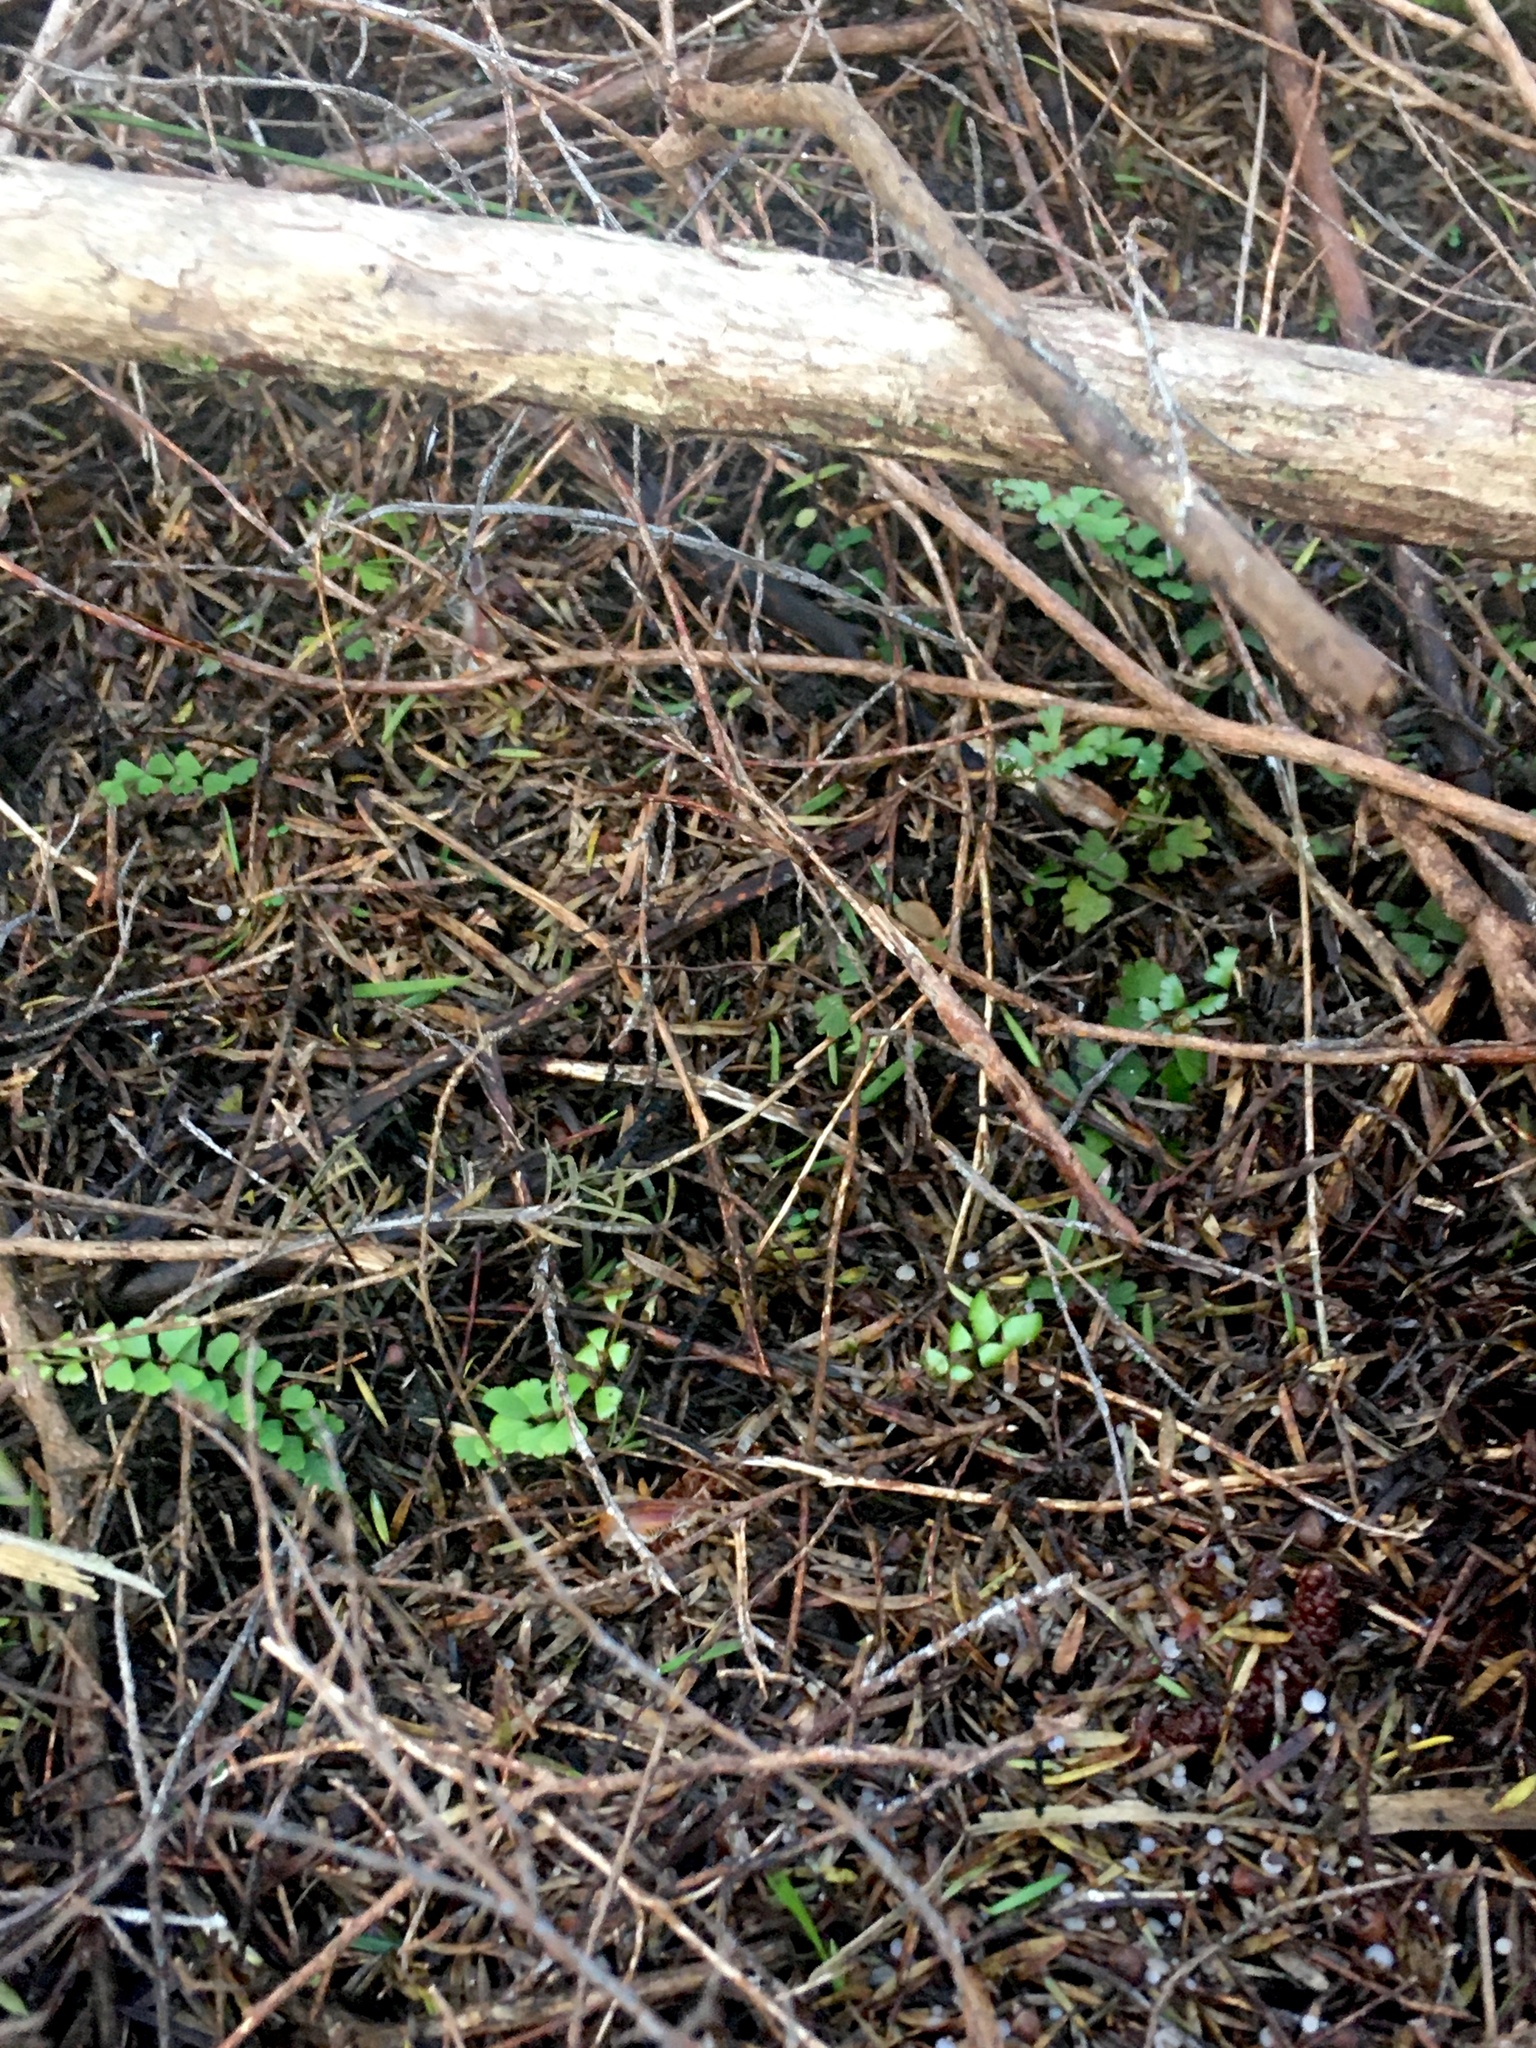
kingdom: Plantae
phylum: Tracheophyta
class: Polypodiopsida
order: Polypodiales
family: Lindsaeaceae
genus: Lindsaea
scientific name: Lindsaea linearis
